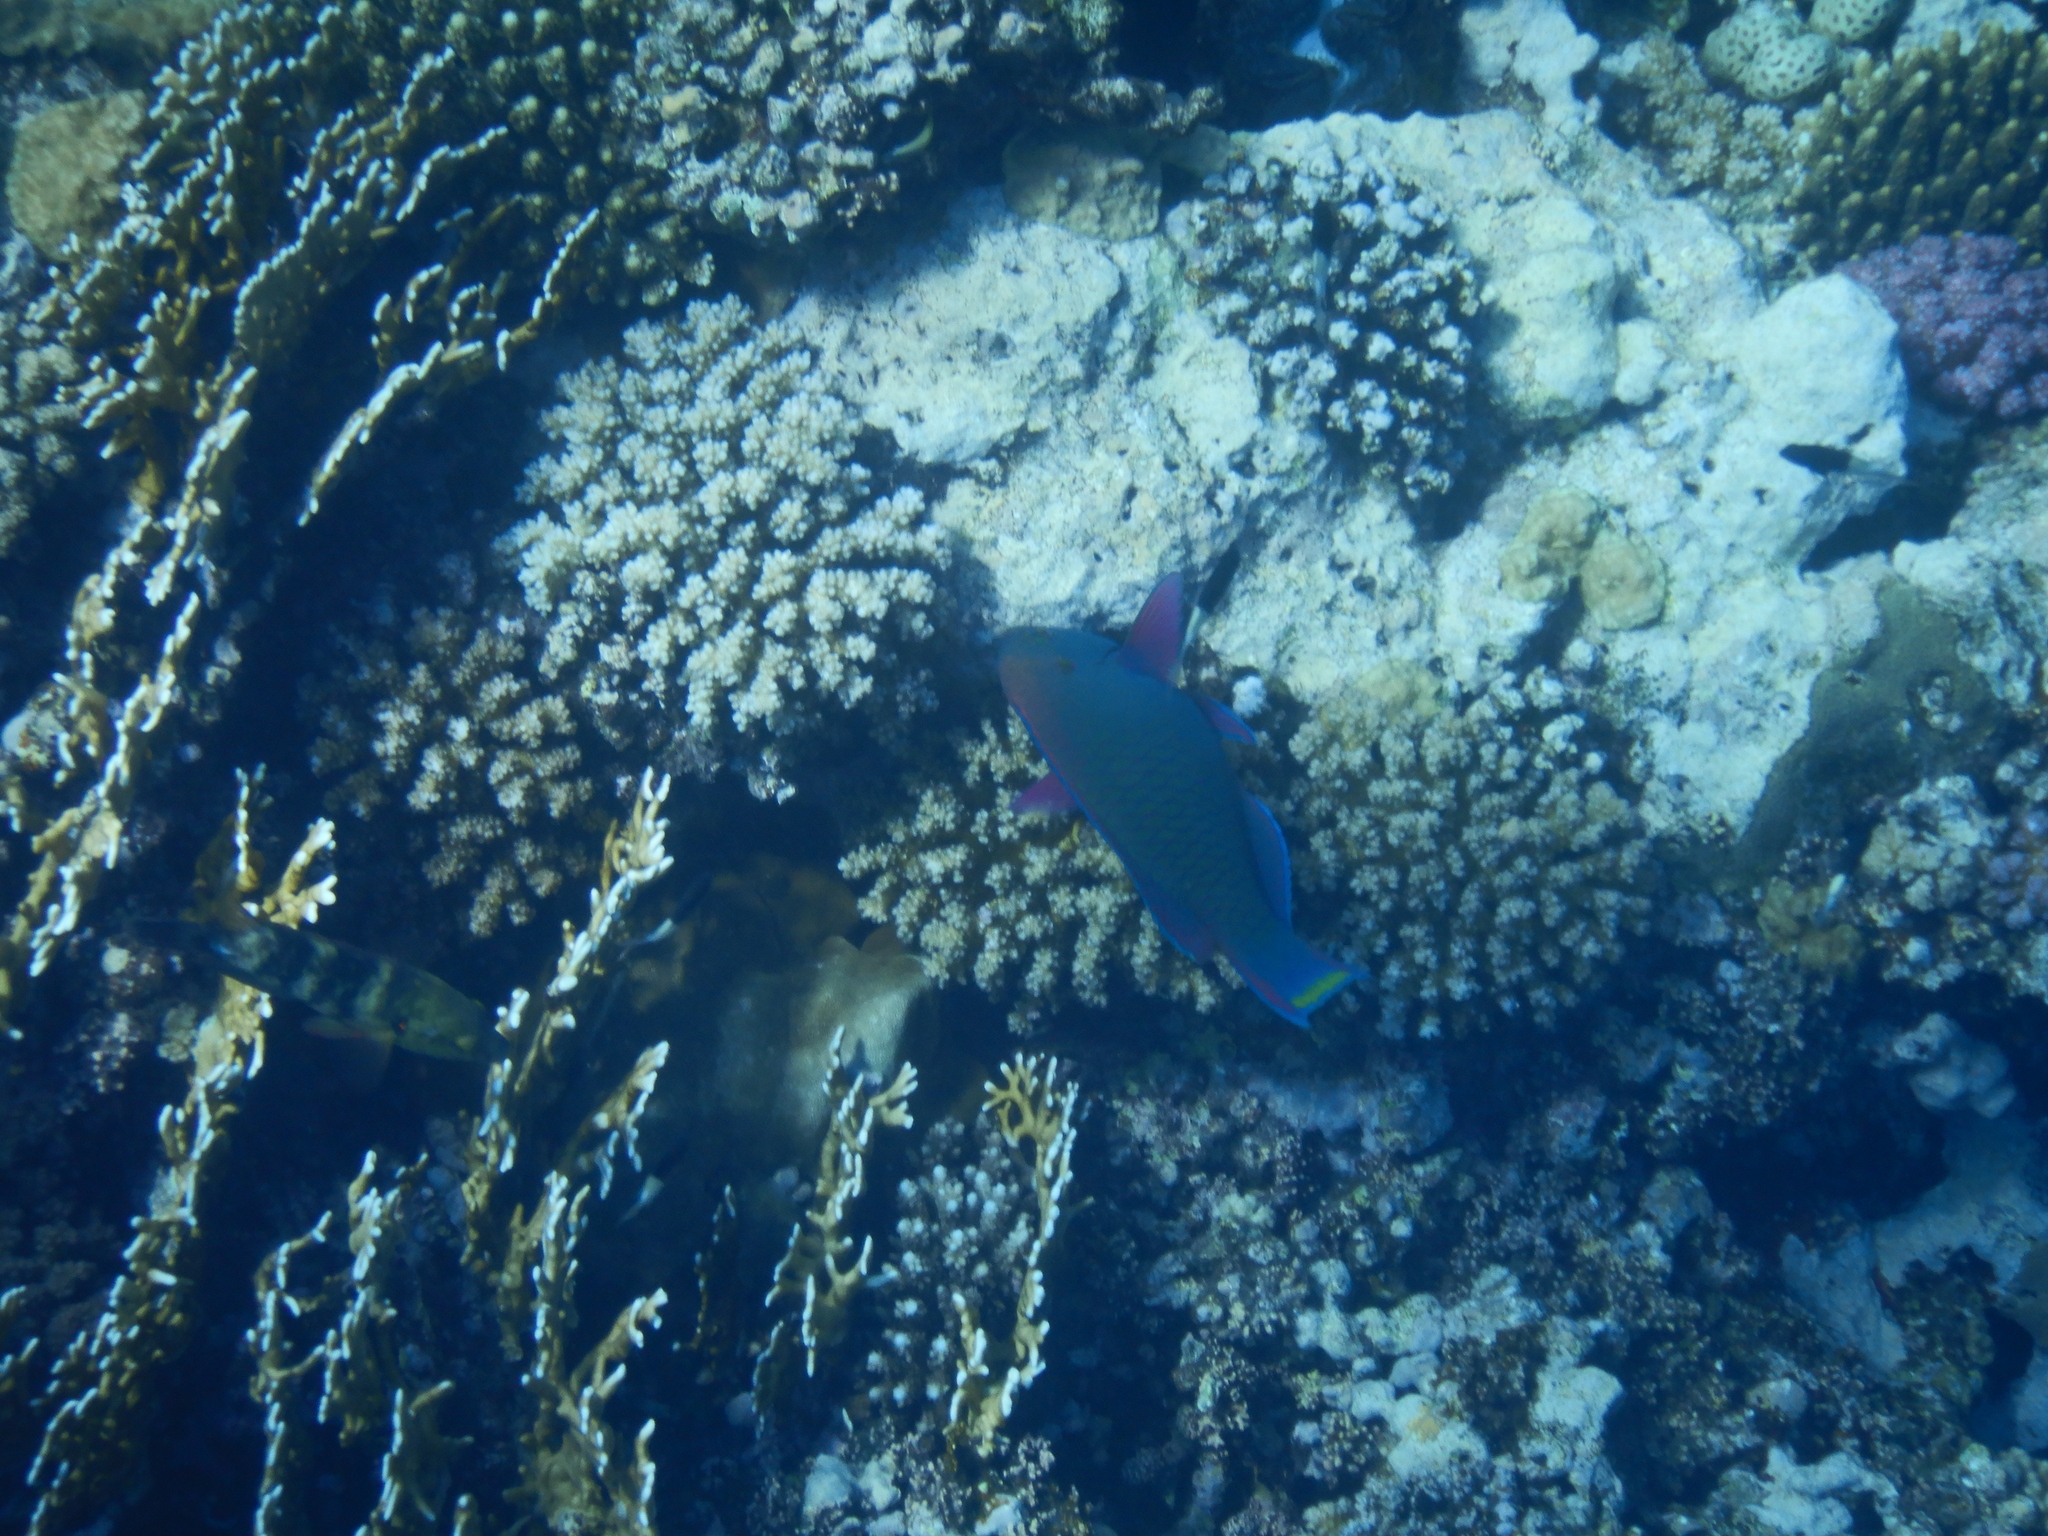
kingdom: Animalia
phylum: Chordata
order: Perciformes
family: Scaridae
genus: Scarus
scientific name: Scarus niger
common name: Dusky parrotfish
